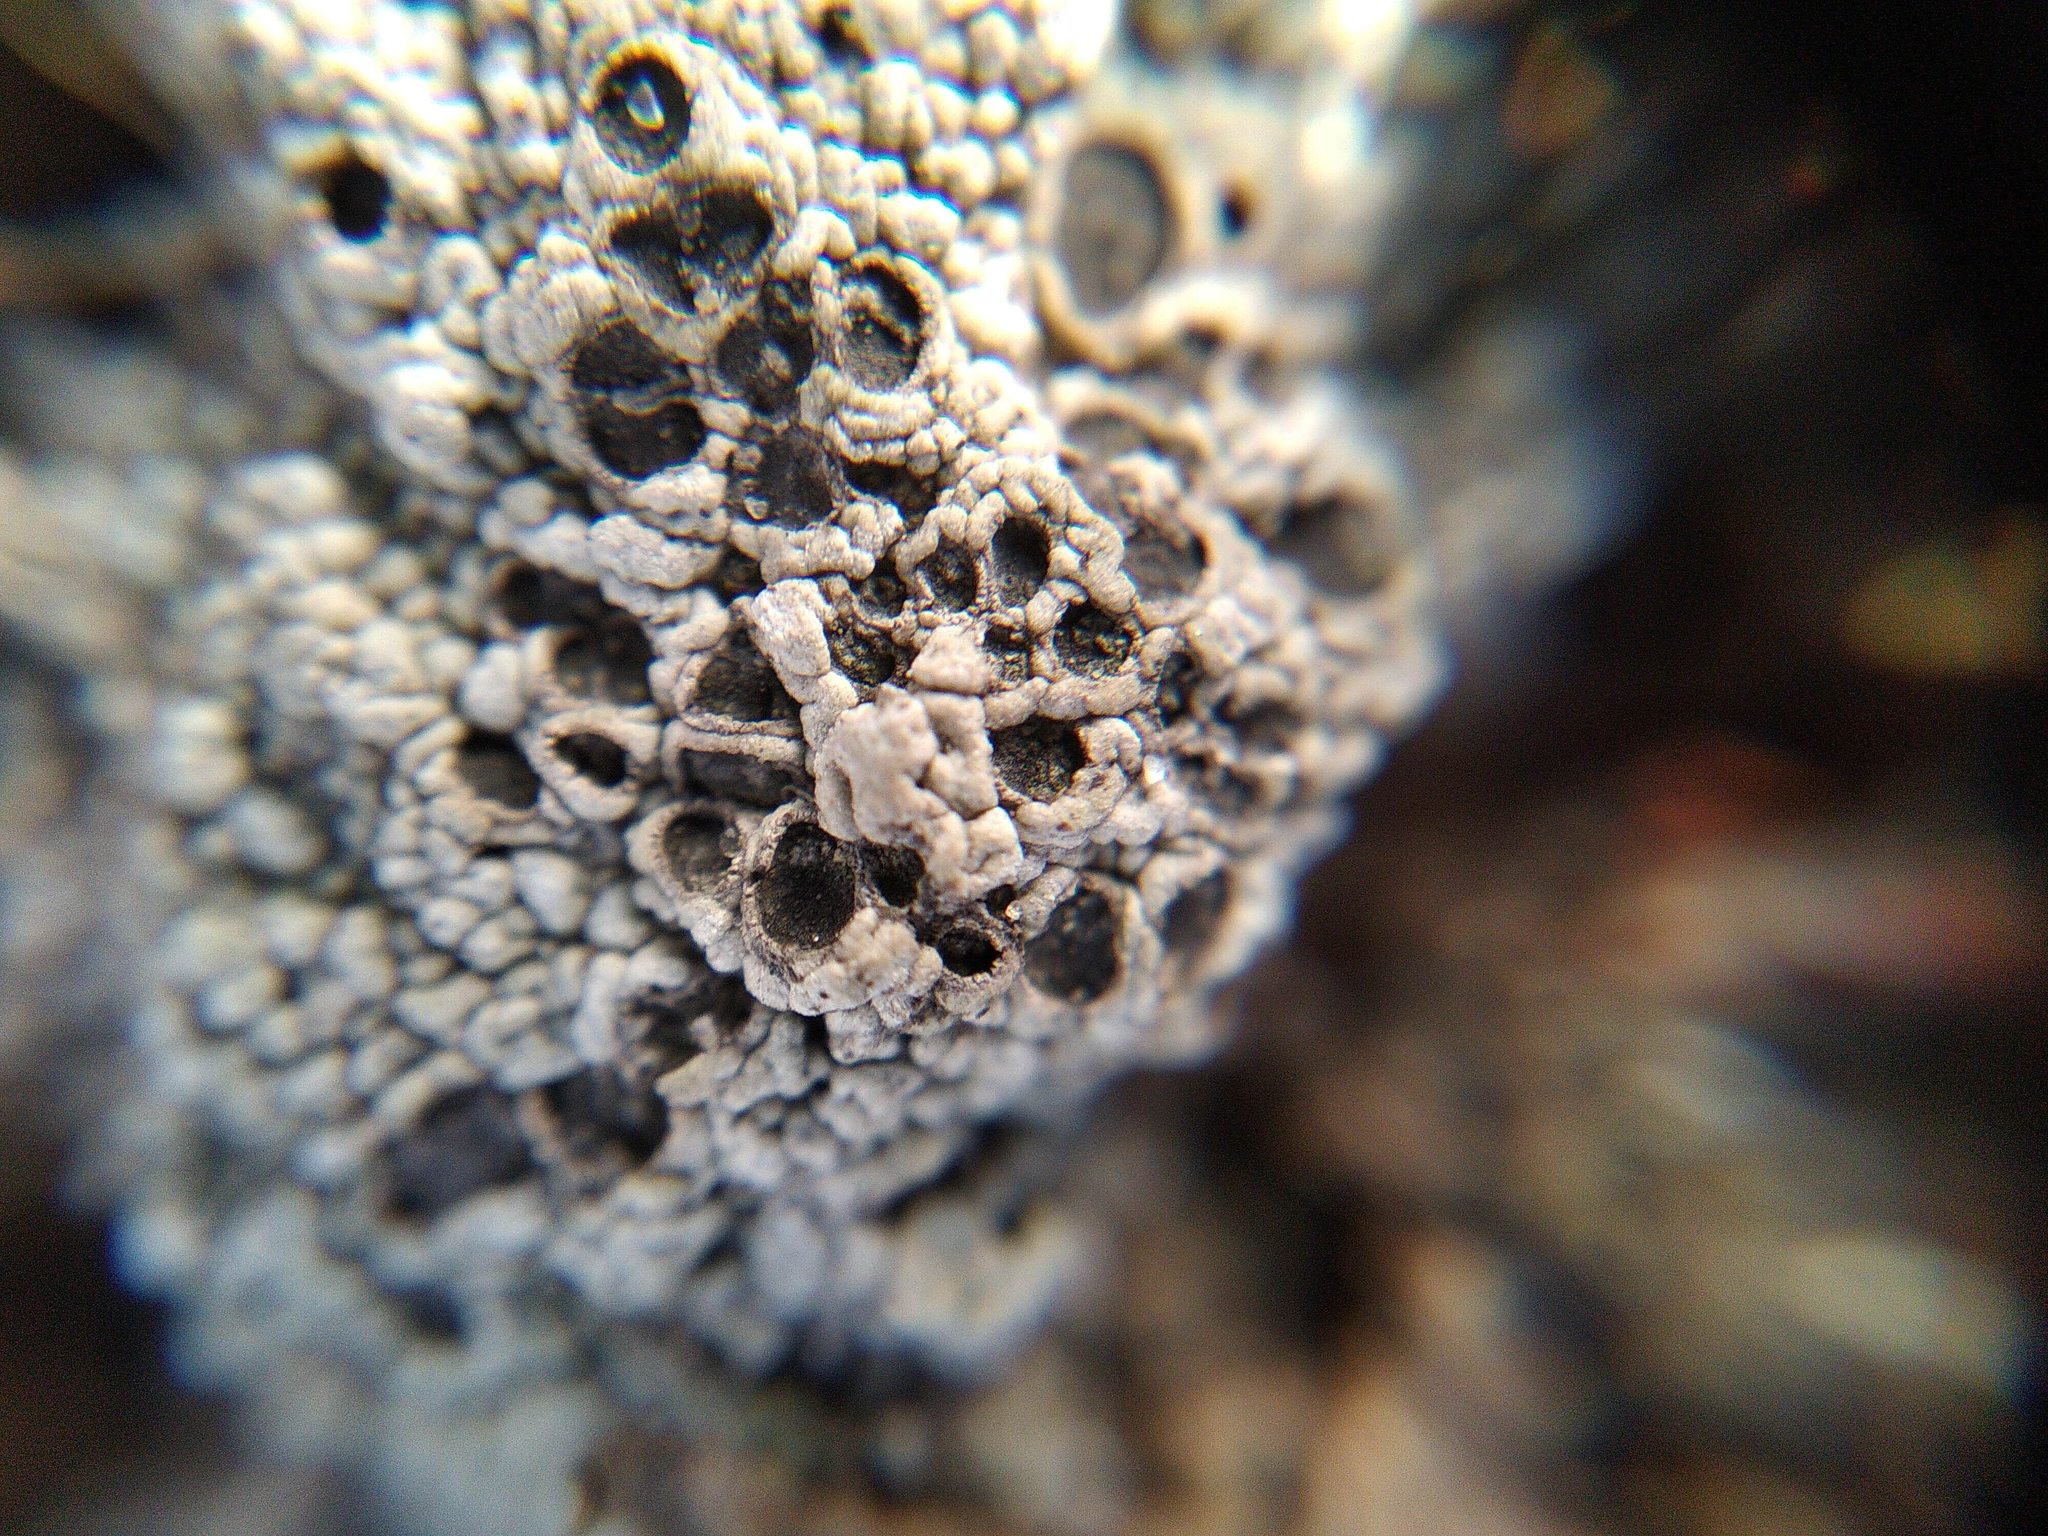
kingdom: Fungi
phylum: Ascomycota
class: Lecanoromycetes
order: Ostropales
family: Graphidaceae
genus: Diploschistes
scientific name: Diploschistes muscorum
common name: Cowpie lichen
